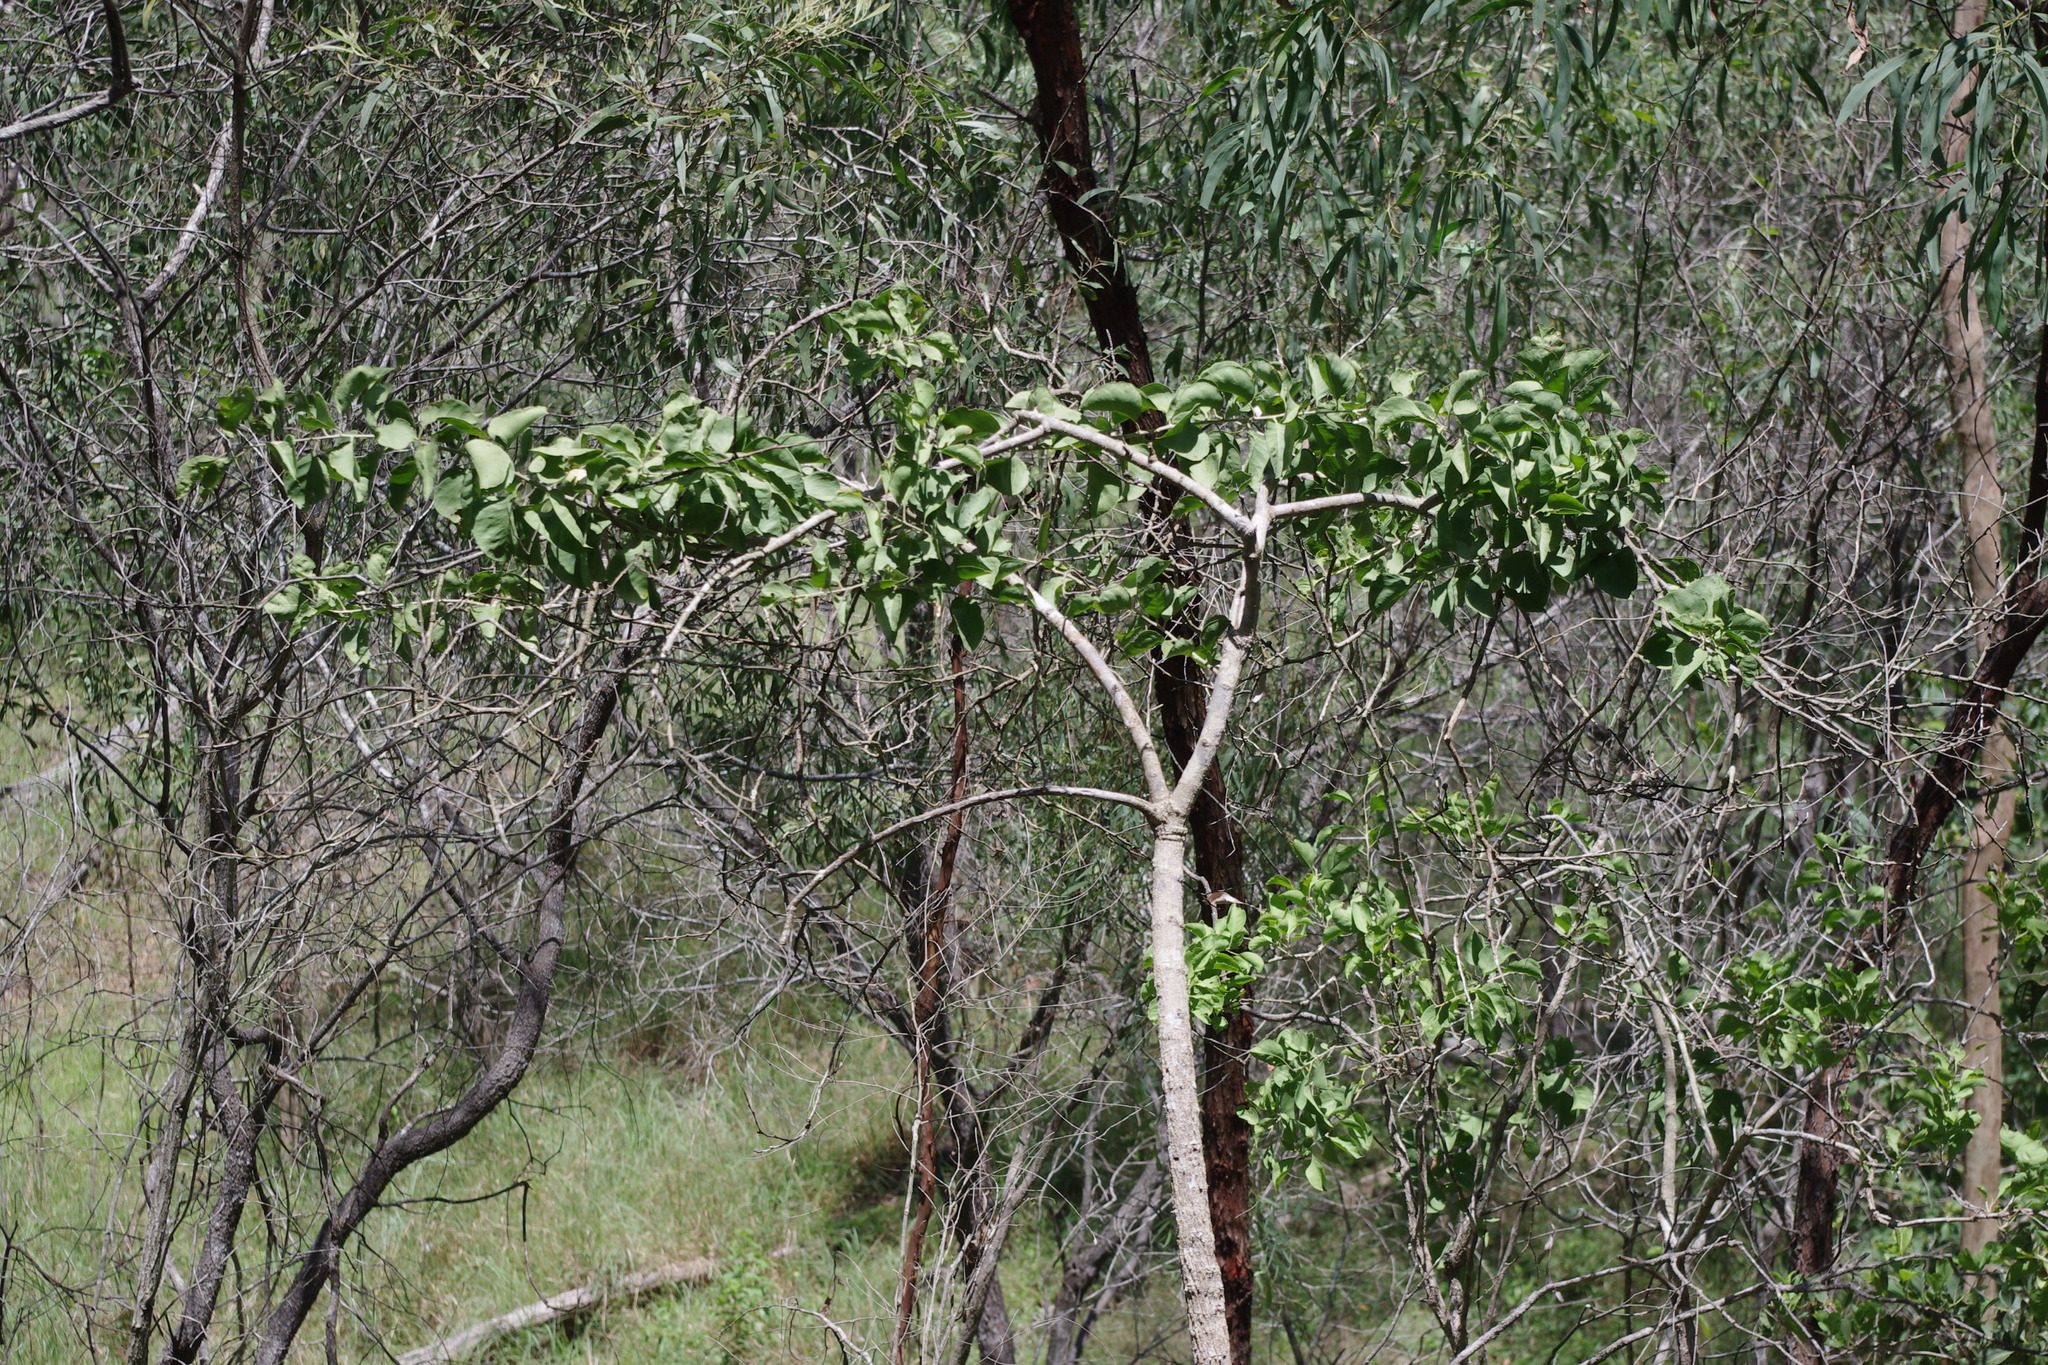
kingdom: Plantae
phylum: Tracheophyta
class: Magnoliopsida
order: Brassicales
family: Capparaceae
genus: Capparis
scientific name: Capparis canescens
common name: Native caper
